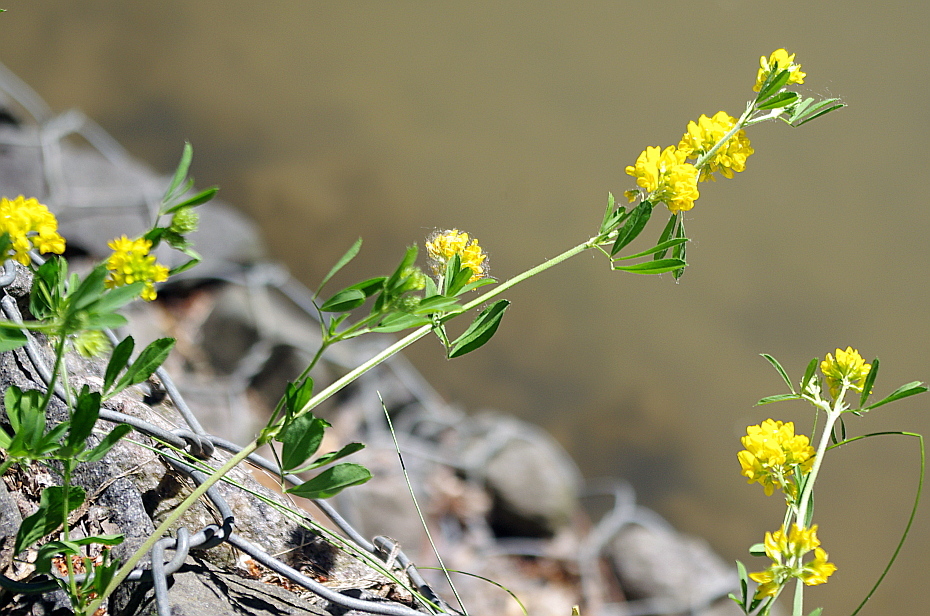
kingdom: Plantae
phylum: Tracheophyta
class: Magnoliopsida
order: Fabales
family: Fabaceae
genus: Medicago
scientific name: Medicago falcata
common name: Sickle medick
